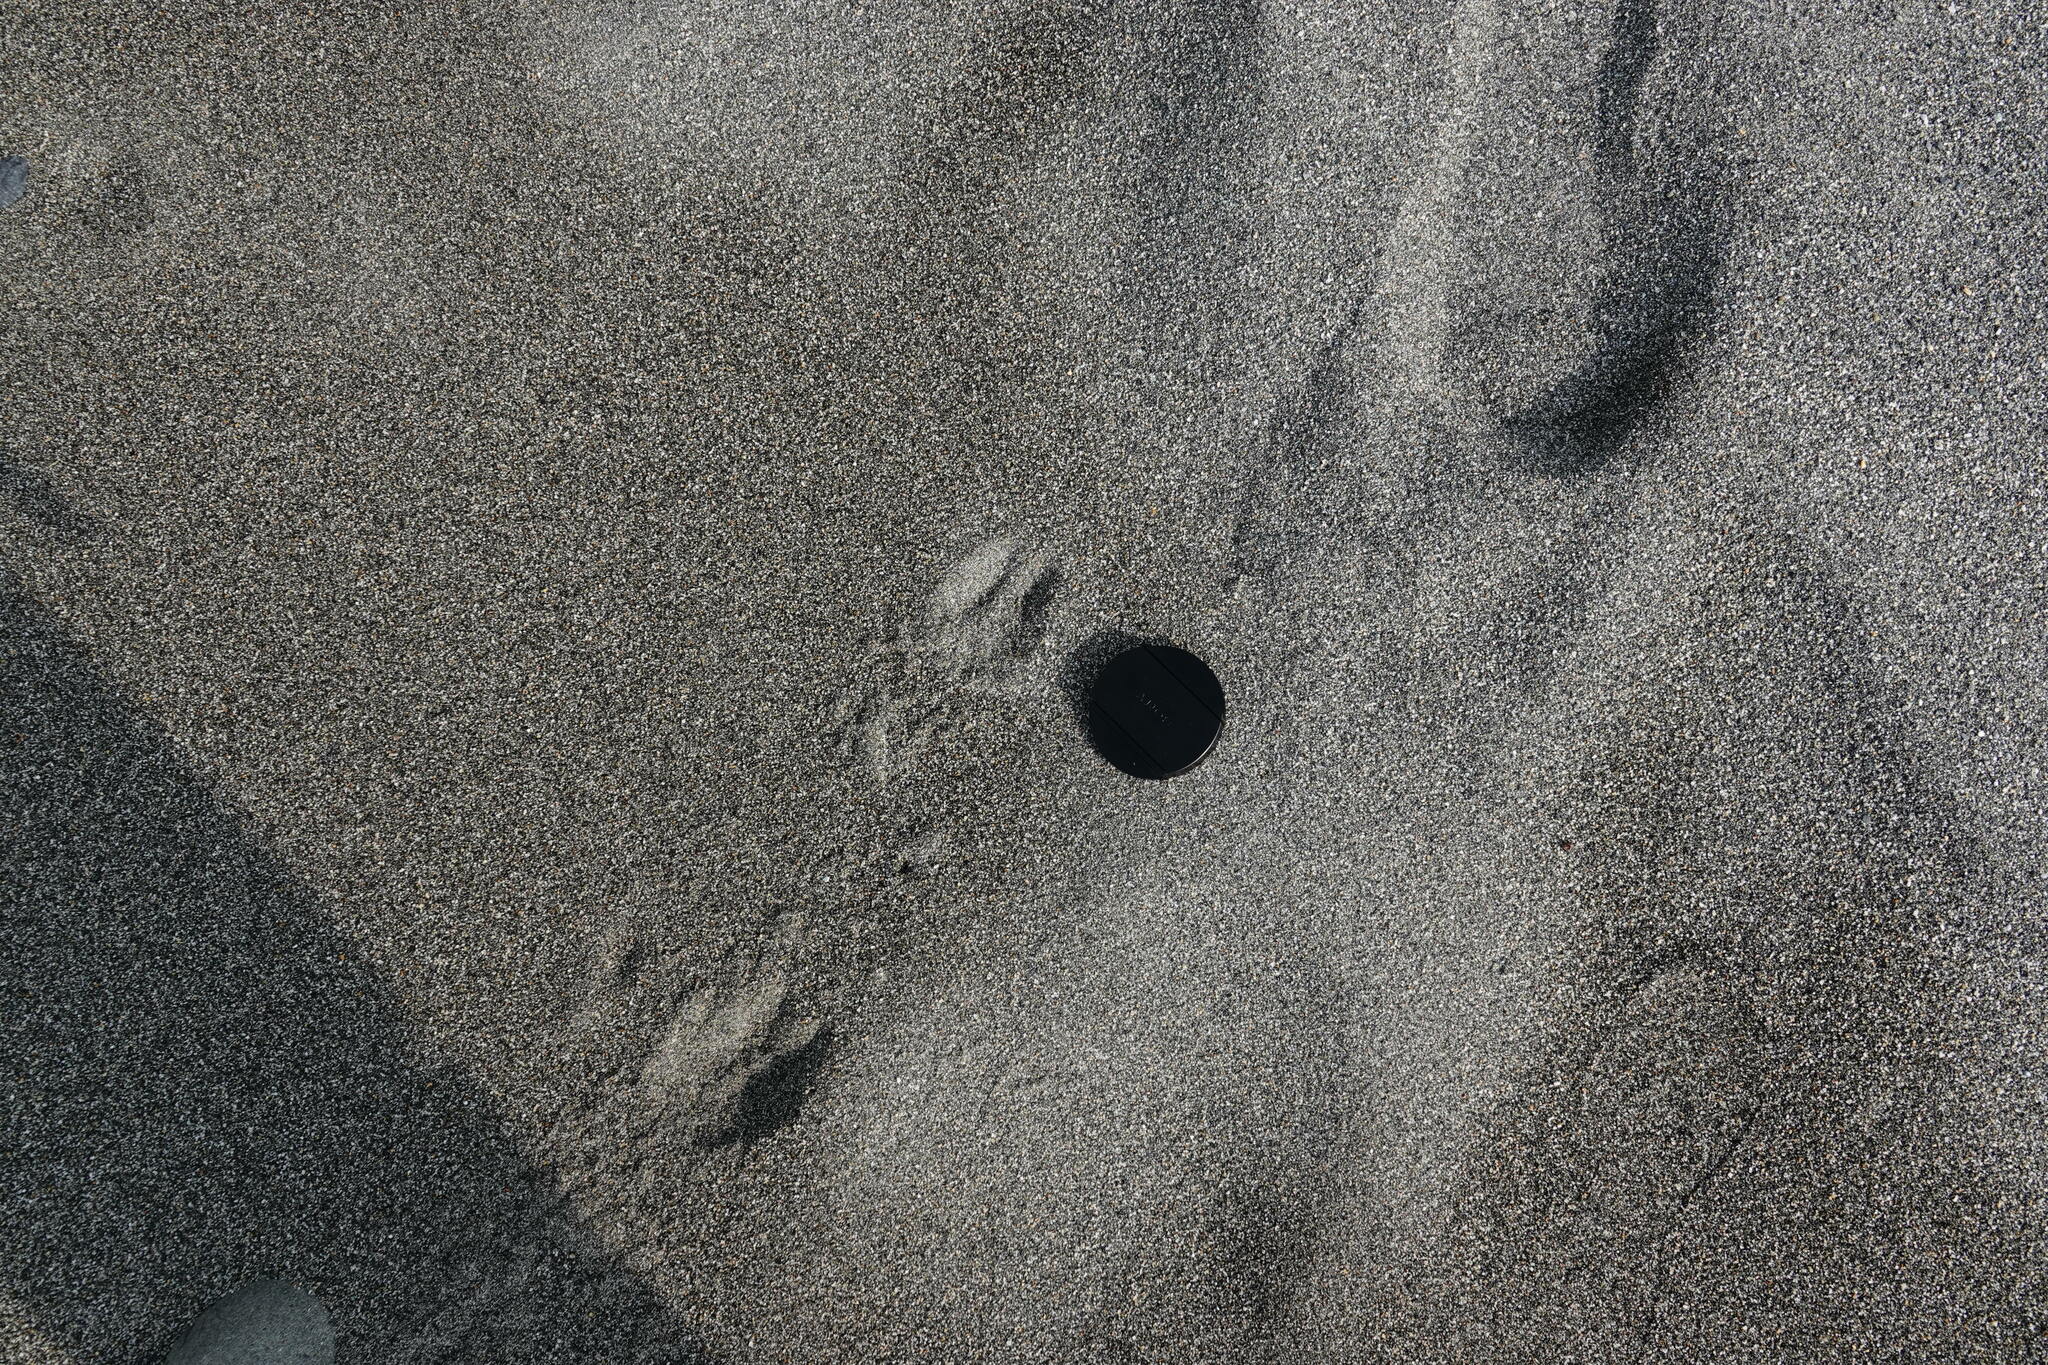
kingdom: Animalia
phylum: Chordata
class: Mammalia
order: Artiodactyla
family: Cervidae
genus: Muntiacus
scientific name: Muntiacus reevesi
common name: Reeves' muntjac
